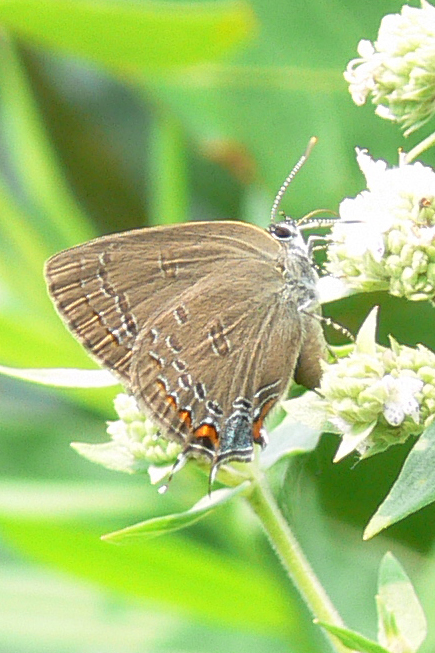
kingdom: Animalia
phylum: Arthropoda
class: Insecta
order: Lepidoptera
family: Lycaenidae
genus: Satyrium
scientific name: Satyrium edwardsii
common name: Edwards' hairstreak
